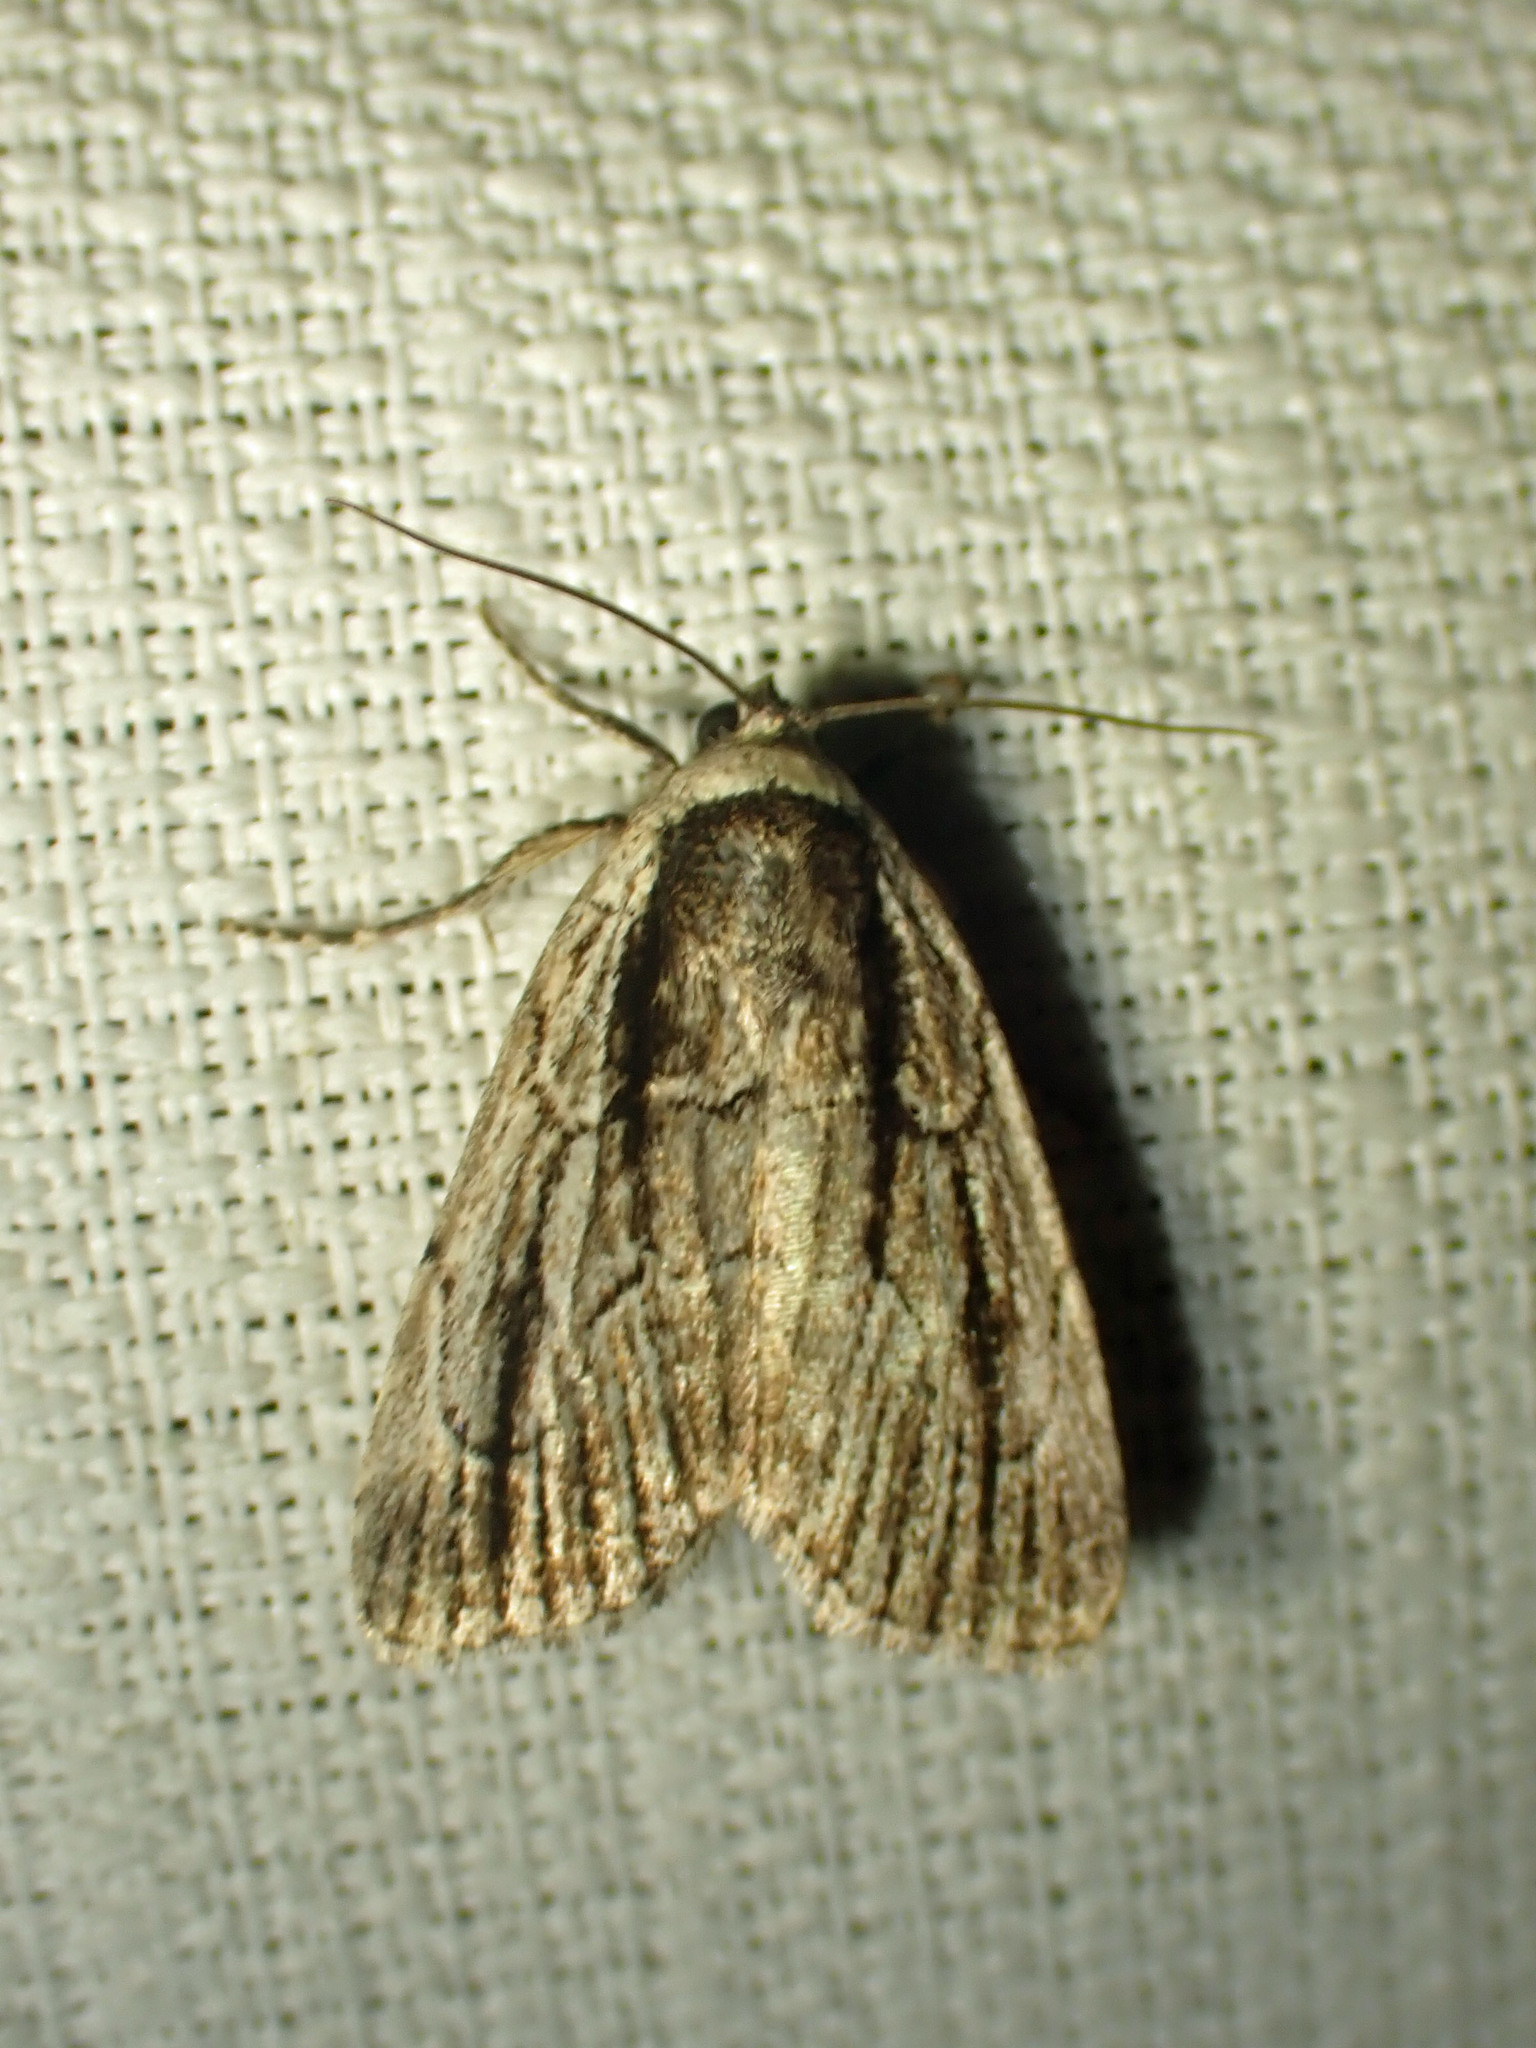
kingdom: Animalia
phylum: Arthropoda
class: Insecta
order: Lepidoptera
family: Noctuidae
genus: Sympistis
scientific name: Sympistis badistriga
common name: Brown-lined sallow moth
